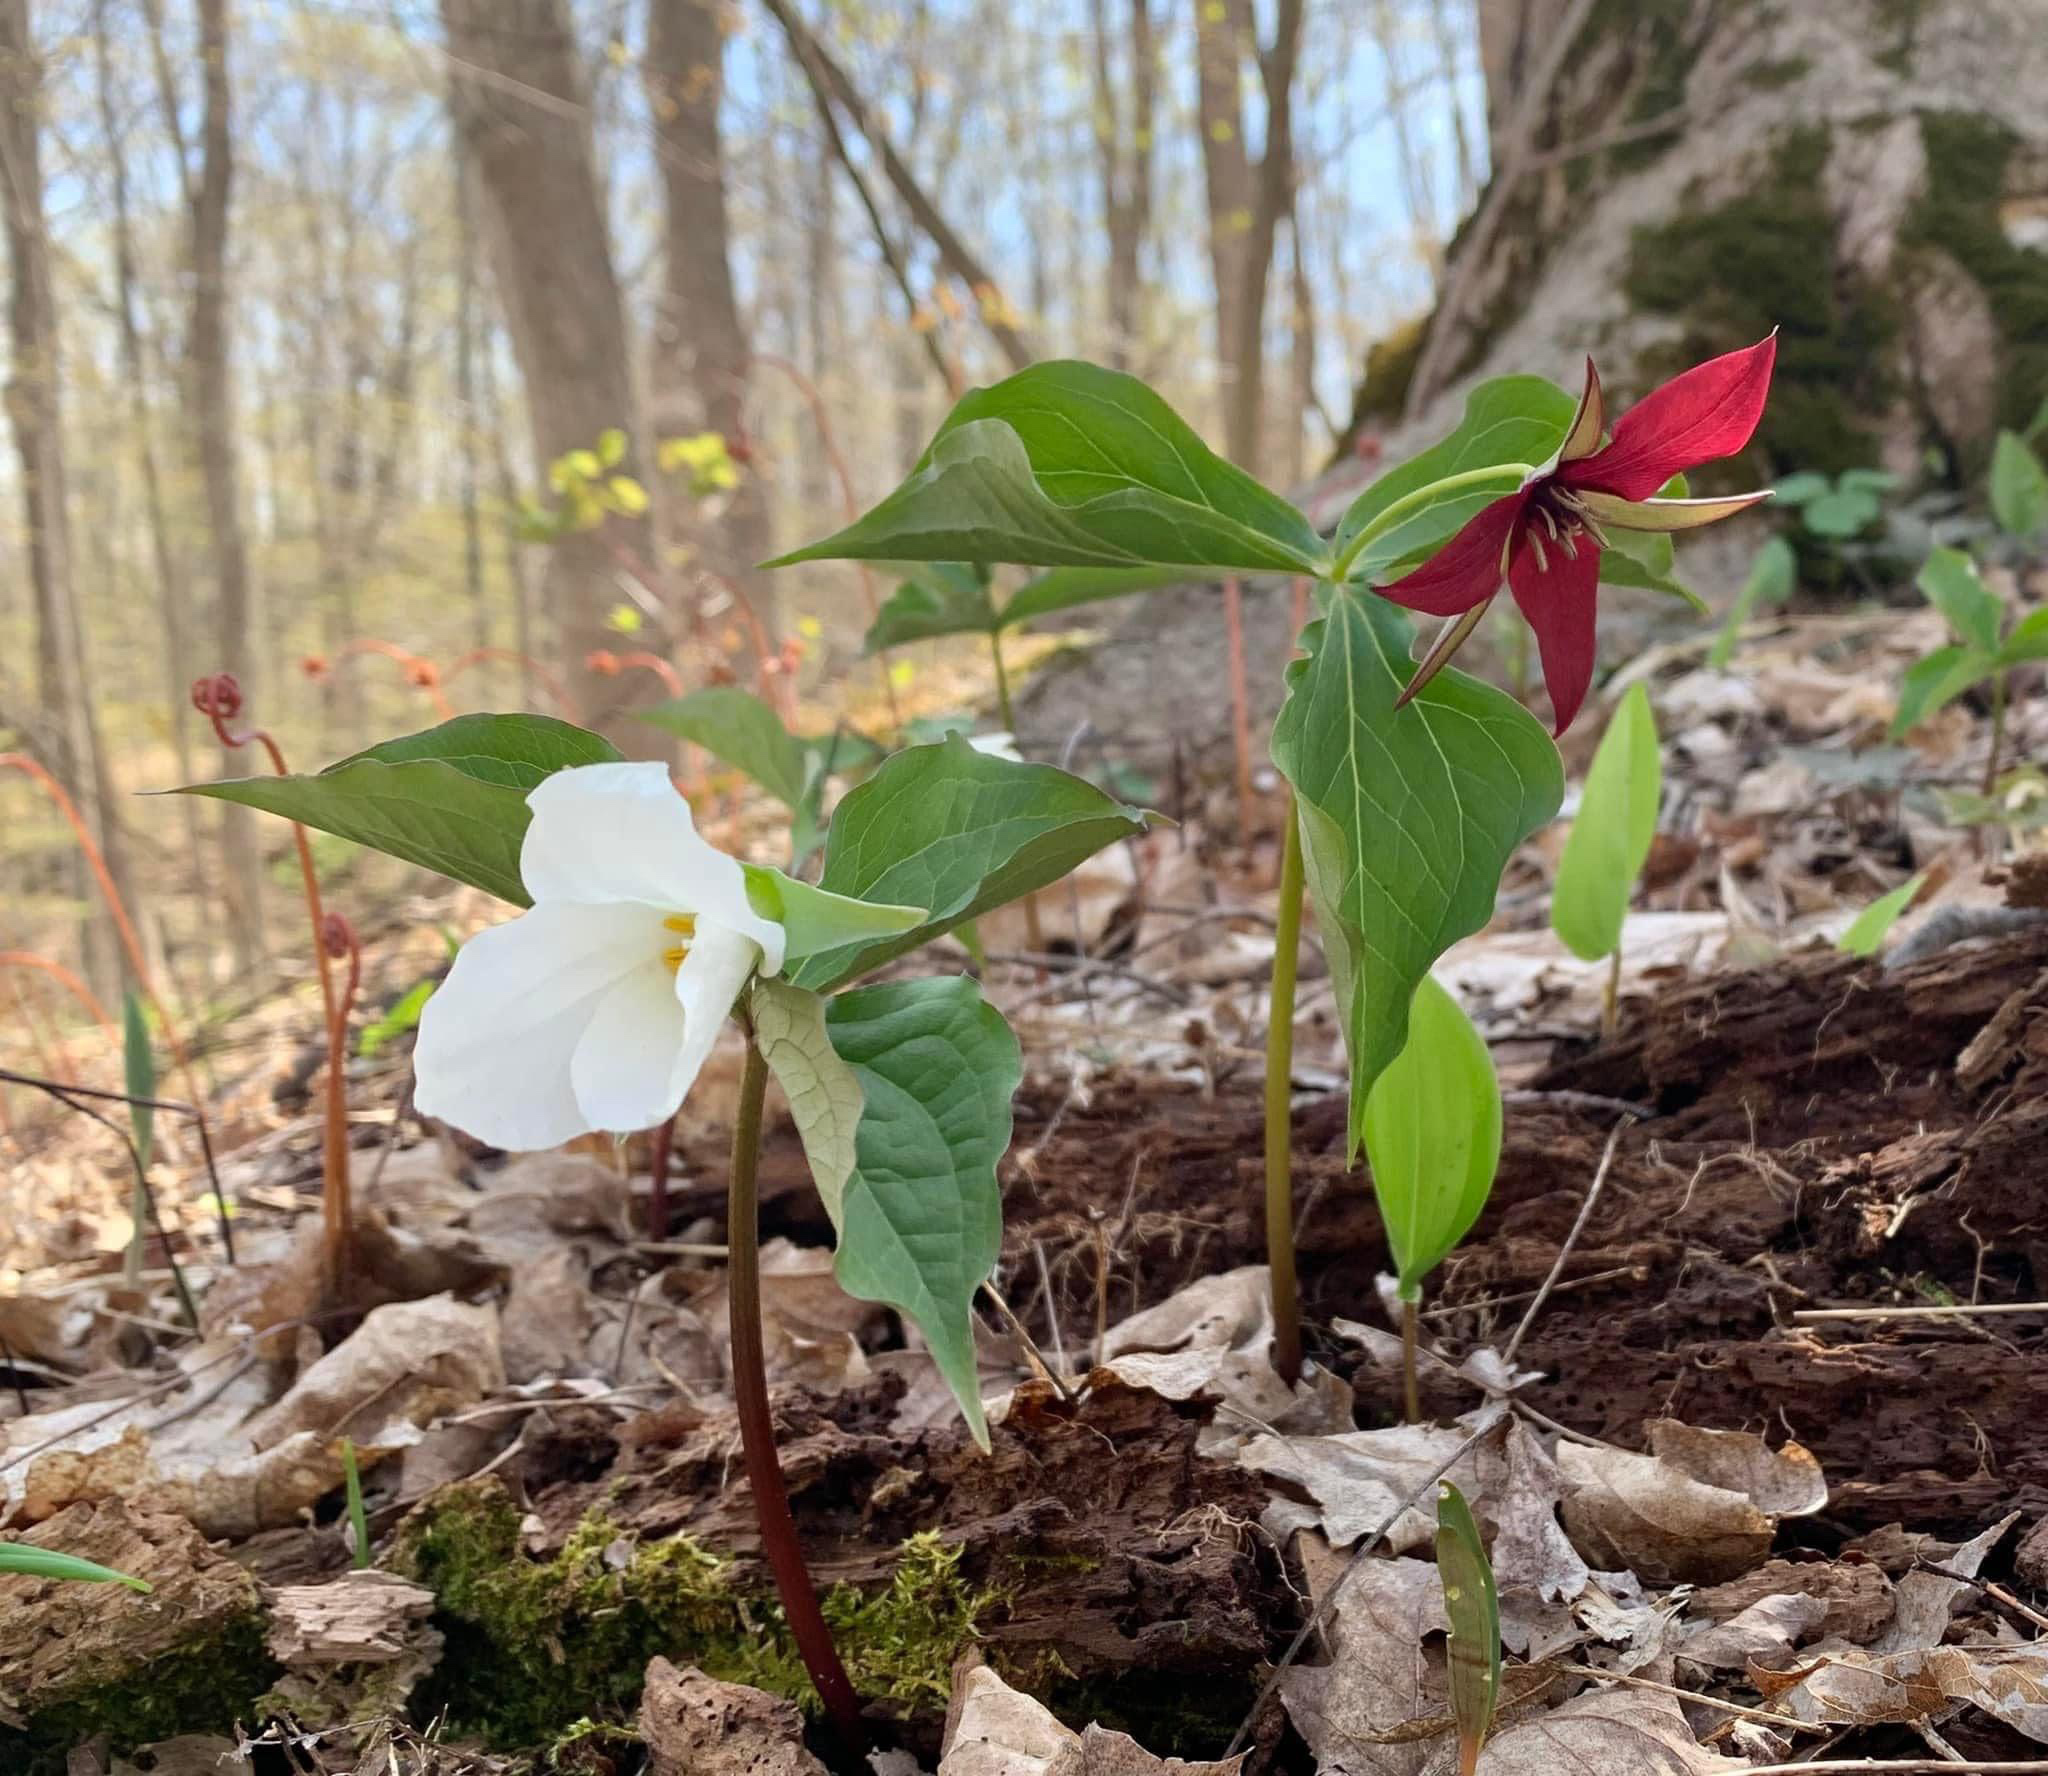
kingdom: Plantae
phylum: Tracheophyta
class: Liliopsida
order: Liliales
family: Melanthiaceae
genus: Trillium
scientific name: Trillium grandiflorum
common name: Great white trillium
